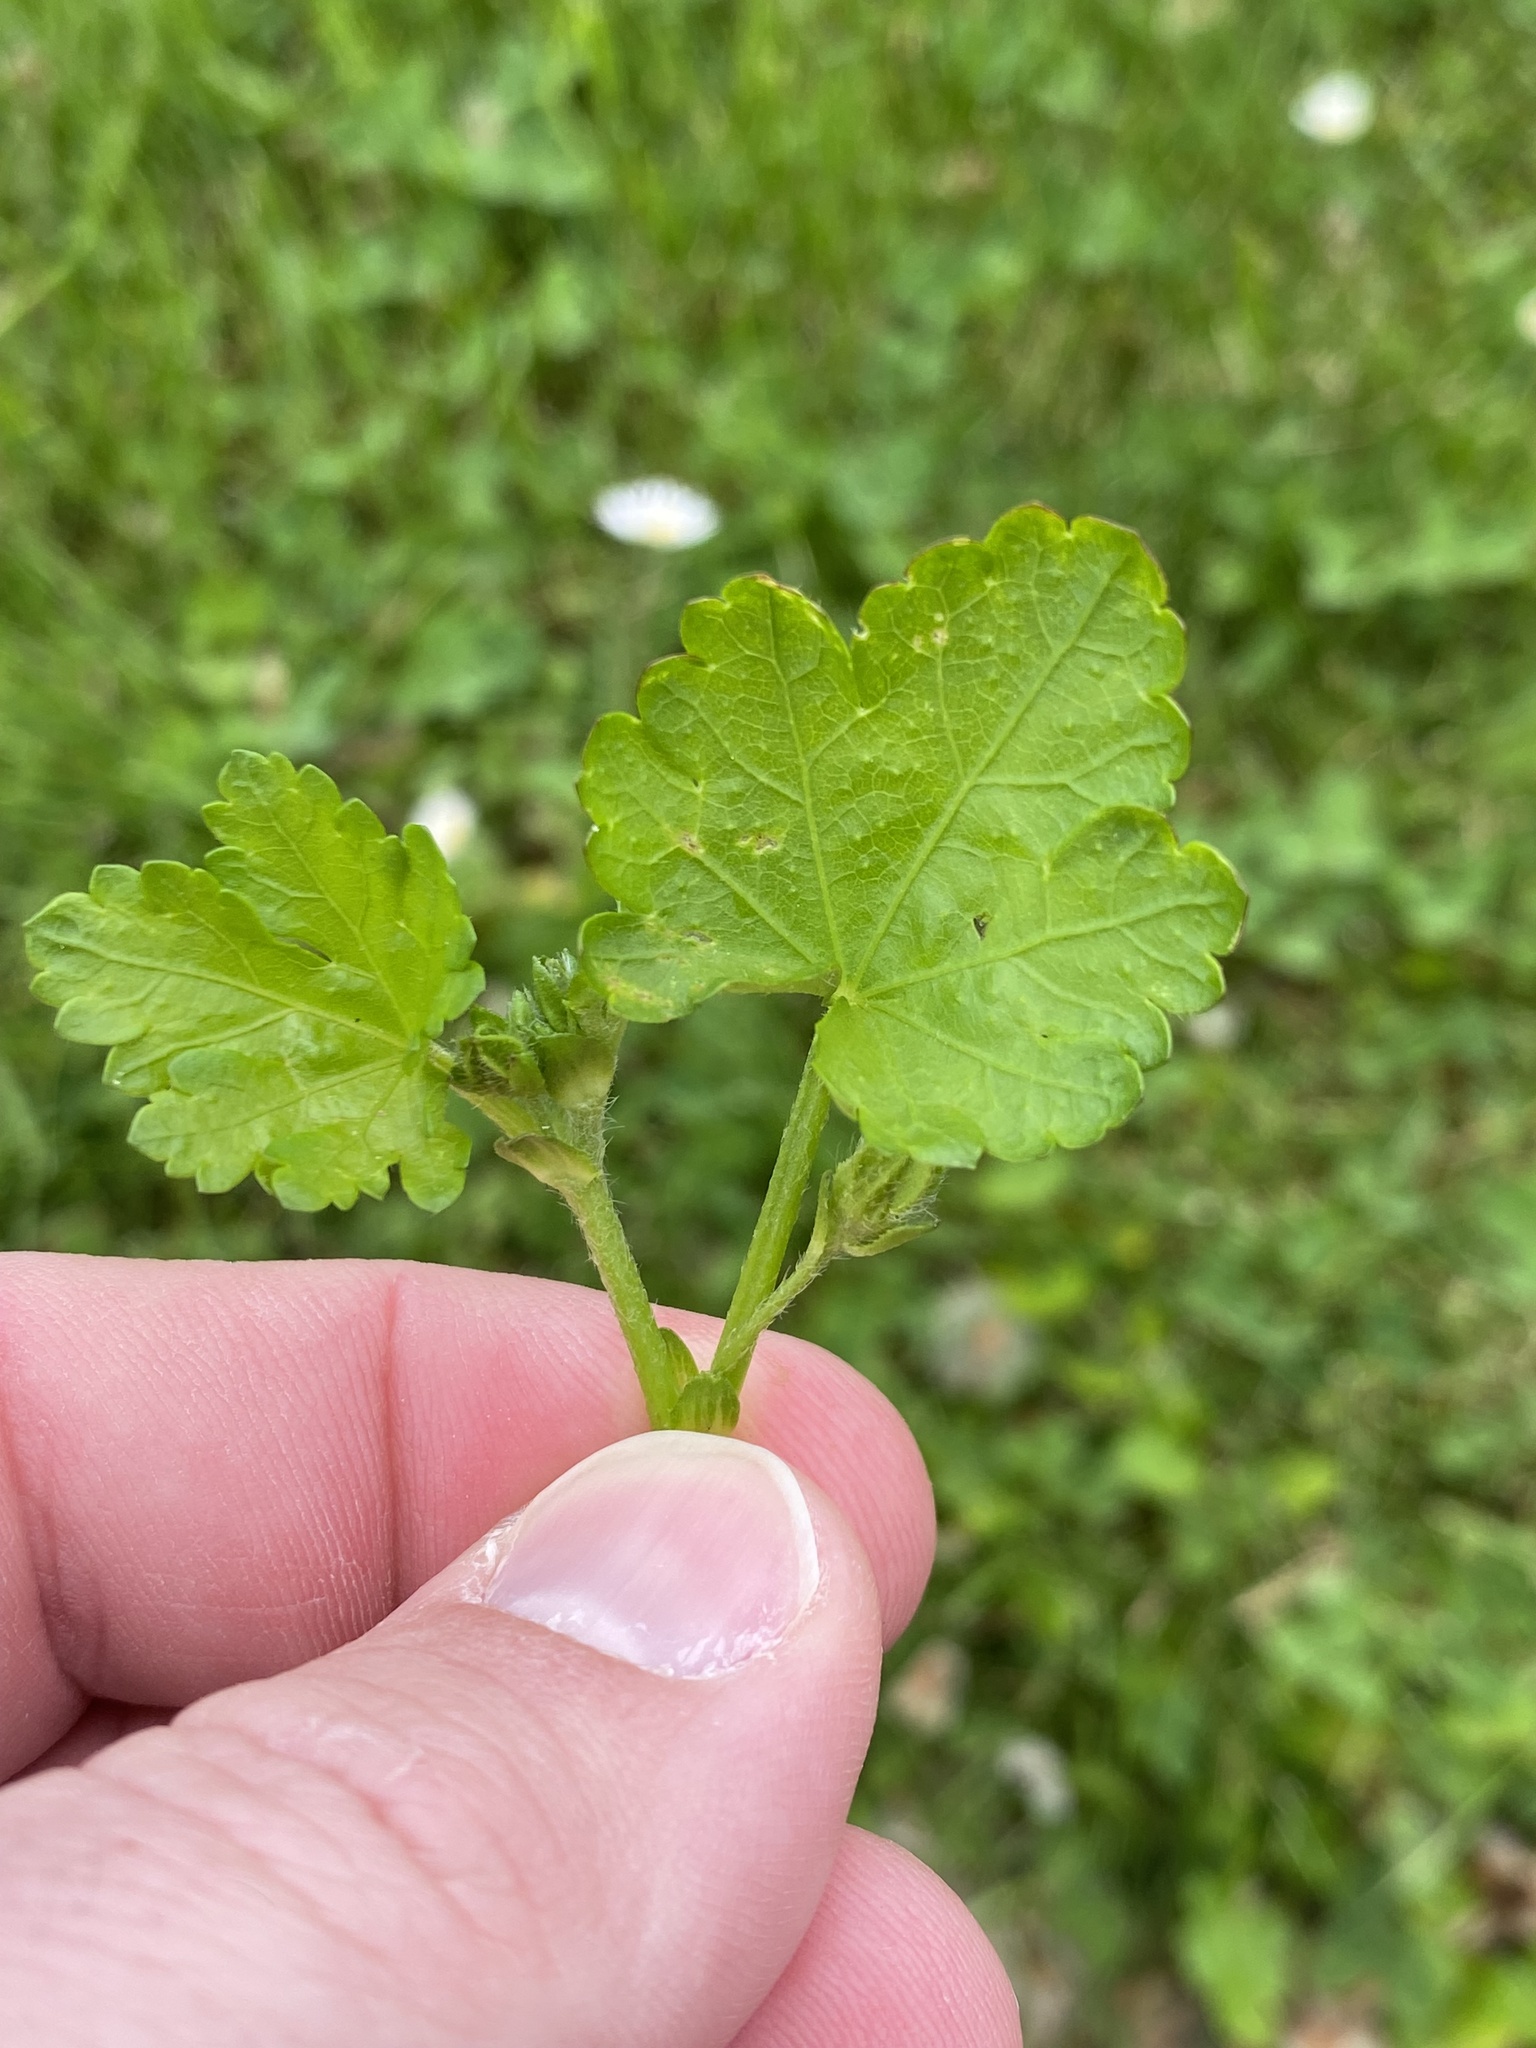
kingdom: Plantae
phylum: Tracheophyta
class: Magnoliopsida
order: Malvales
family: Malvaceae
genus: Modiola
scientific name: Modiola caroliniana
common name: Carolina bristlemallow
